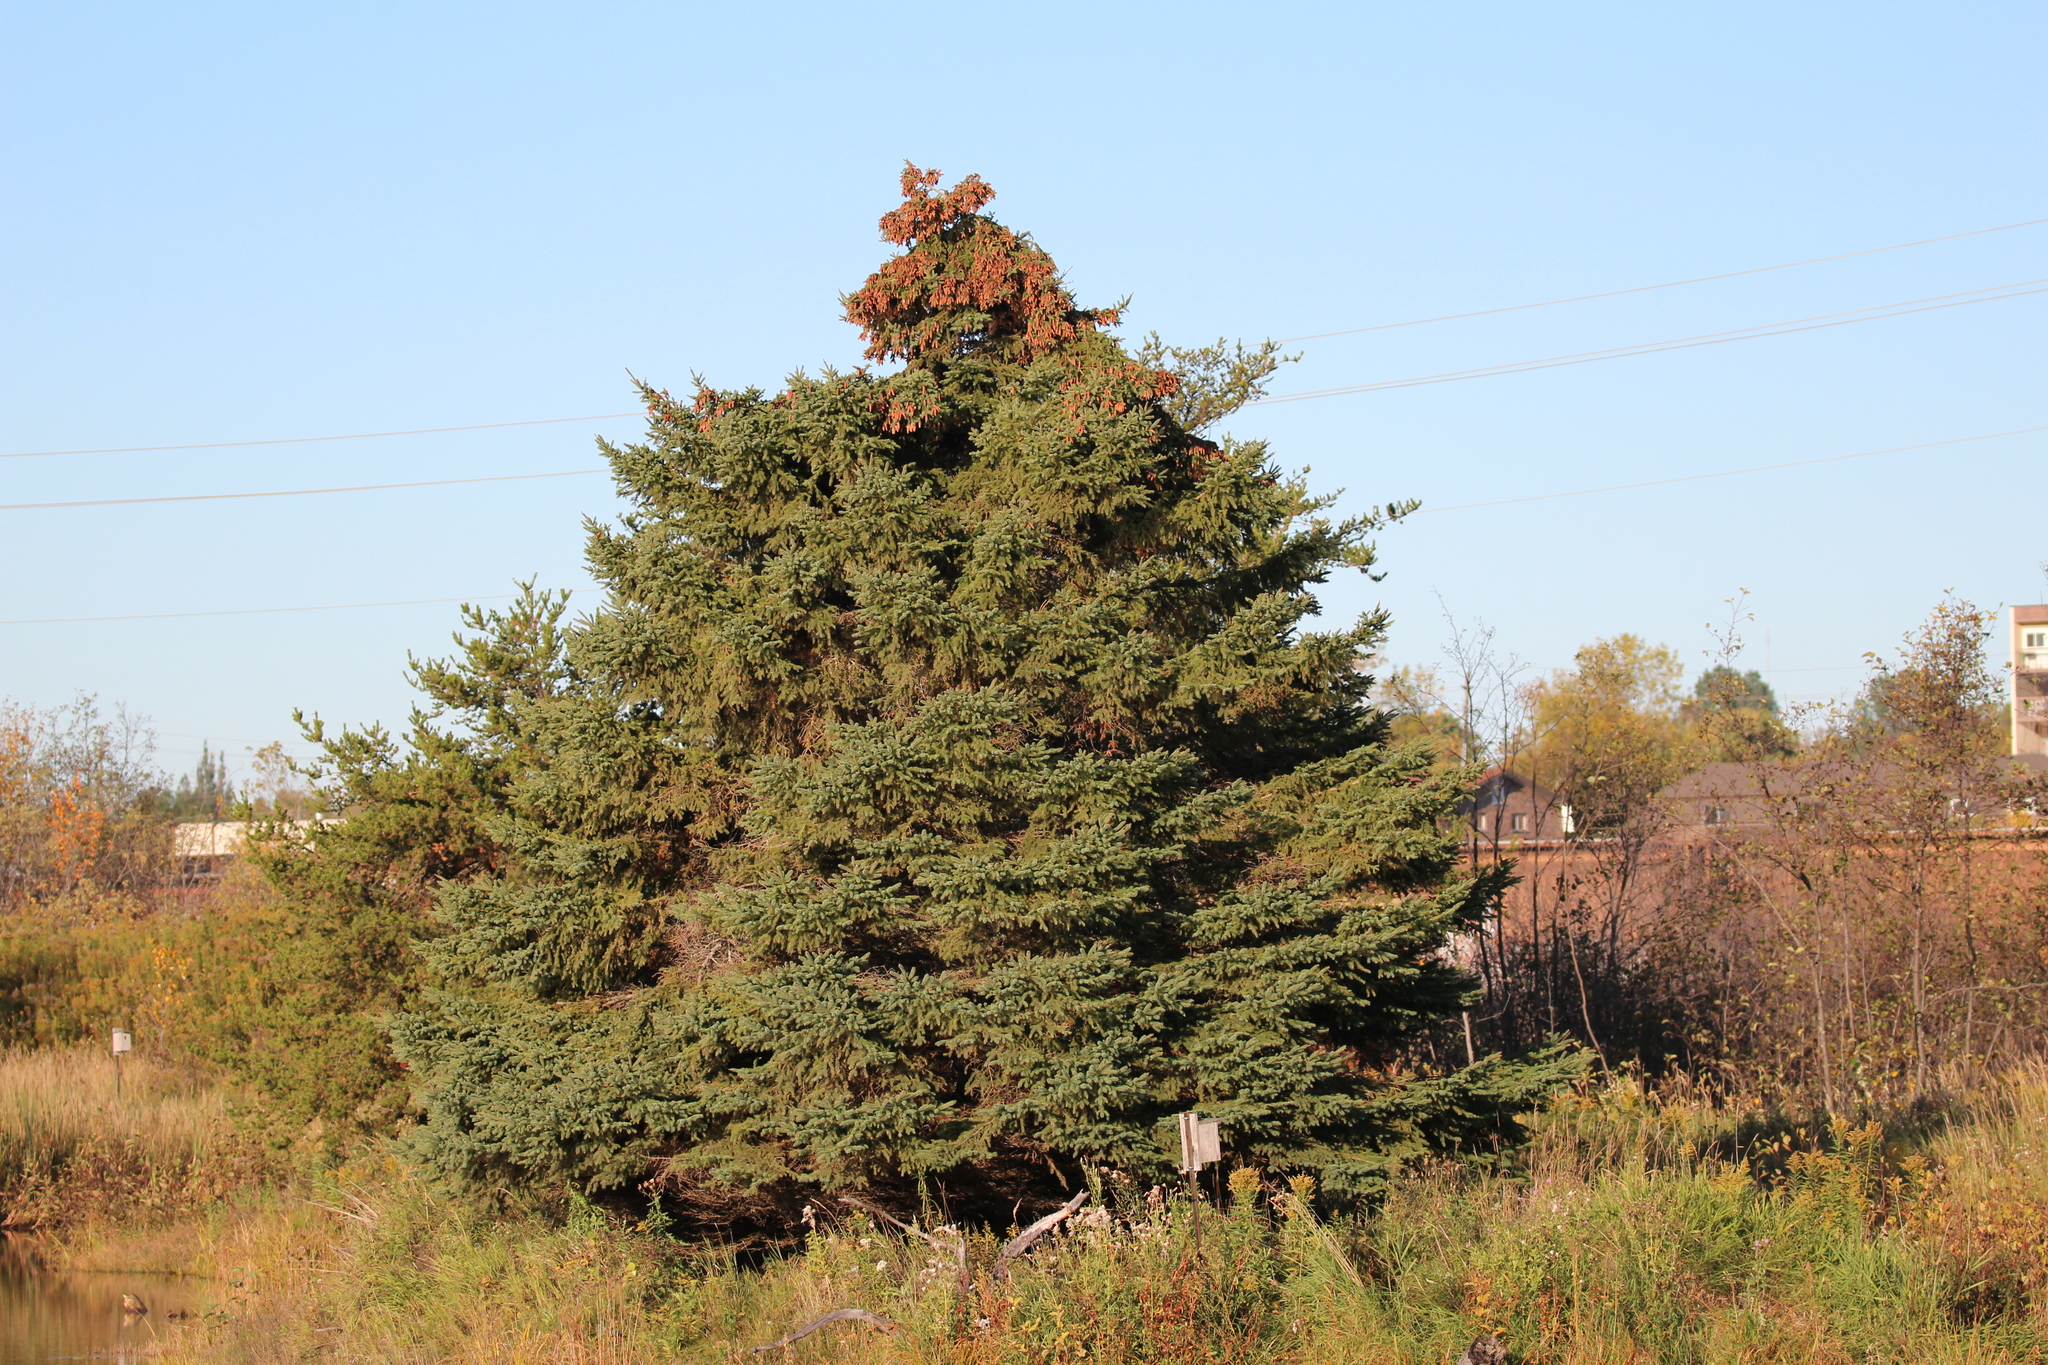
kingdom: Plantae
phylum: Tracheophyta
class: Pinopsida
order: Pinales
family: Pinaceae
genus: Picea
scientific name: Picea glauca
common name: White spruce
